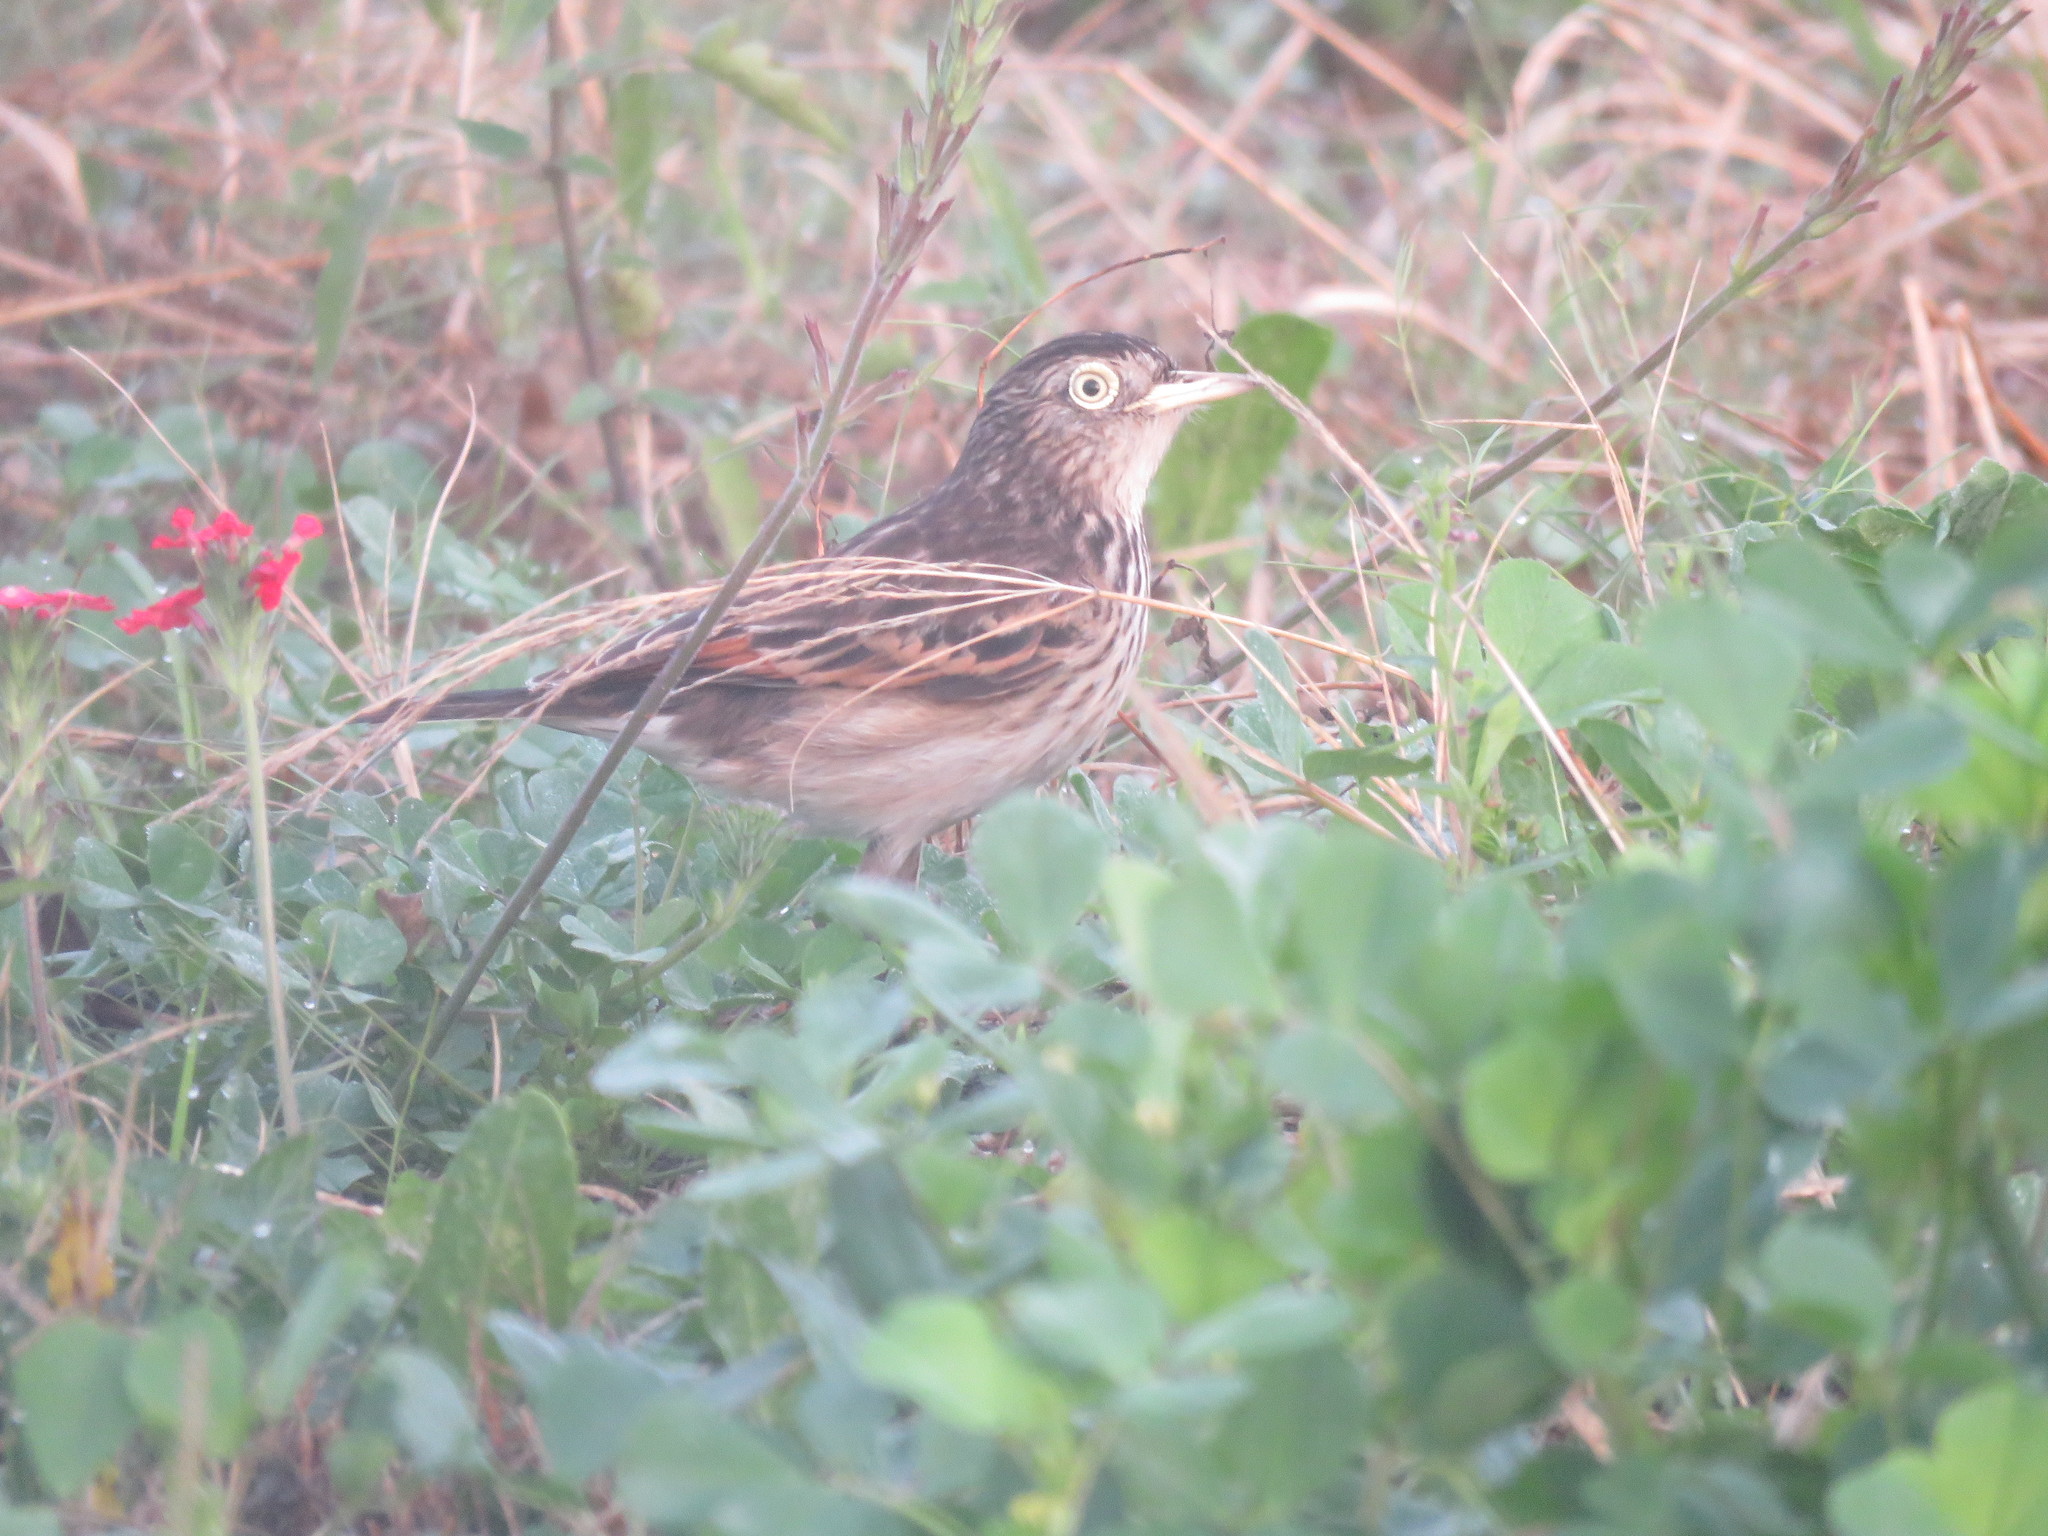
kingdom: Animalia
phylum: Chordata
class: Aves
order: Passeriformes
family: Tyrannidae
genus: Hymenops
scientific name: Hymenops perspicillatus
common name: Spectacled tyrant
